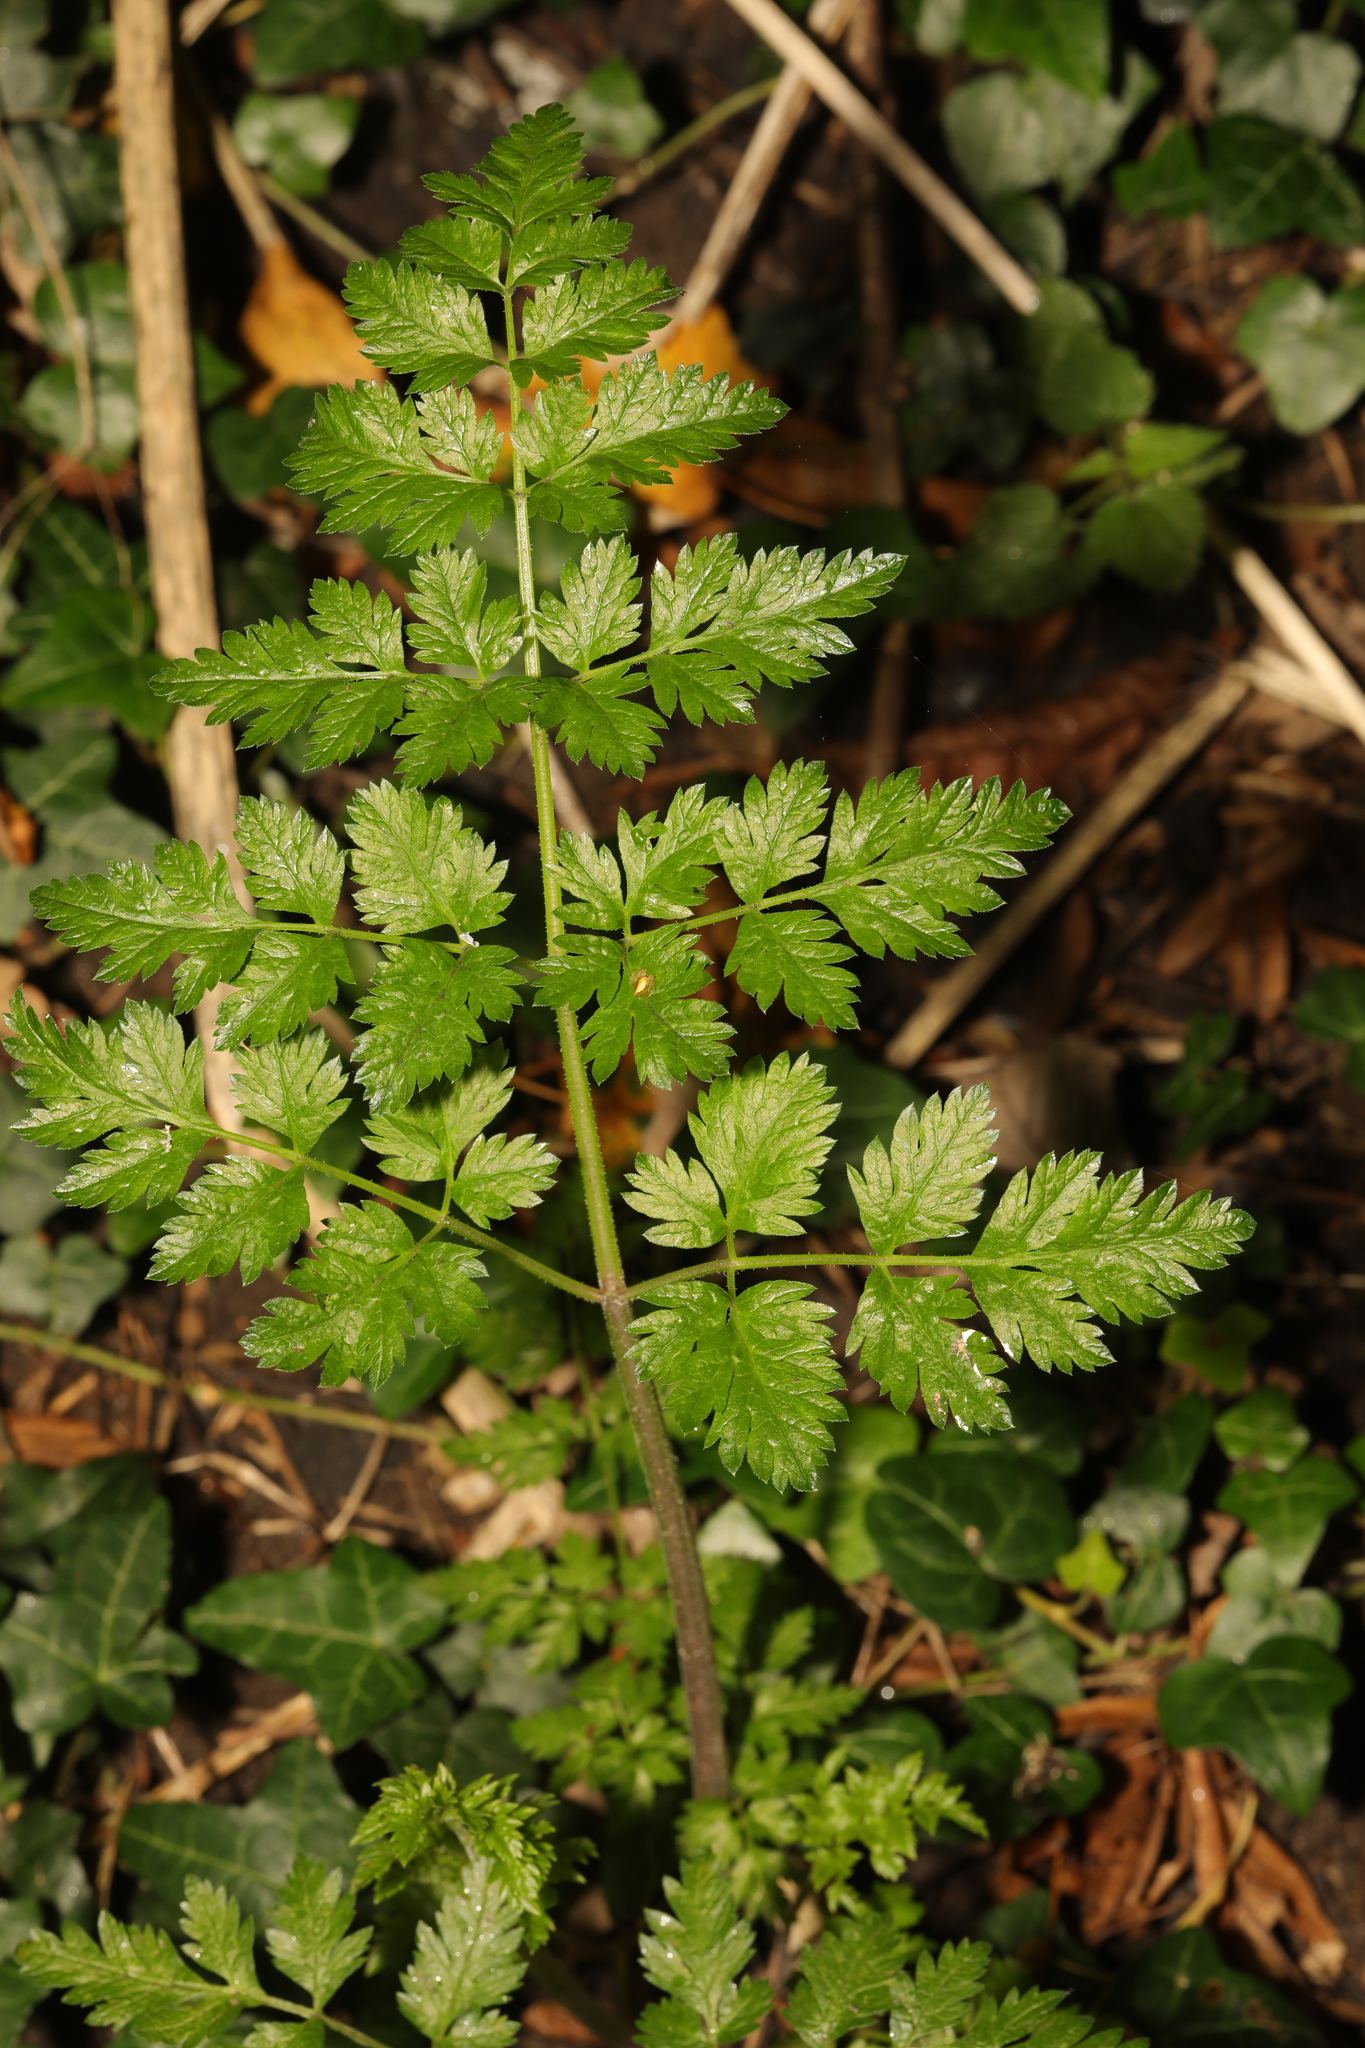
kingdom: Plantae
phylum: Tracheophyta
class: Magnoliopsida
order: Apiales
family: Apiaceae
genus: Anthriscus
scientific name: Anthriscus sylvestris
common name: Cow parsley
